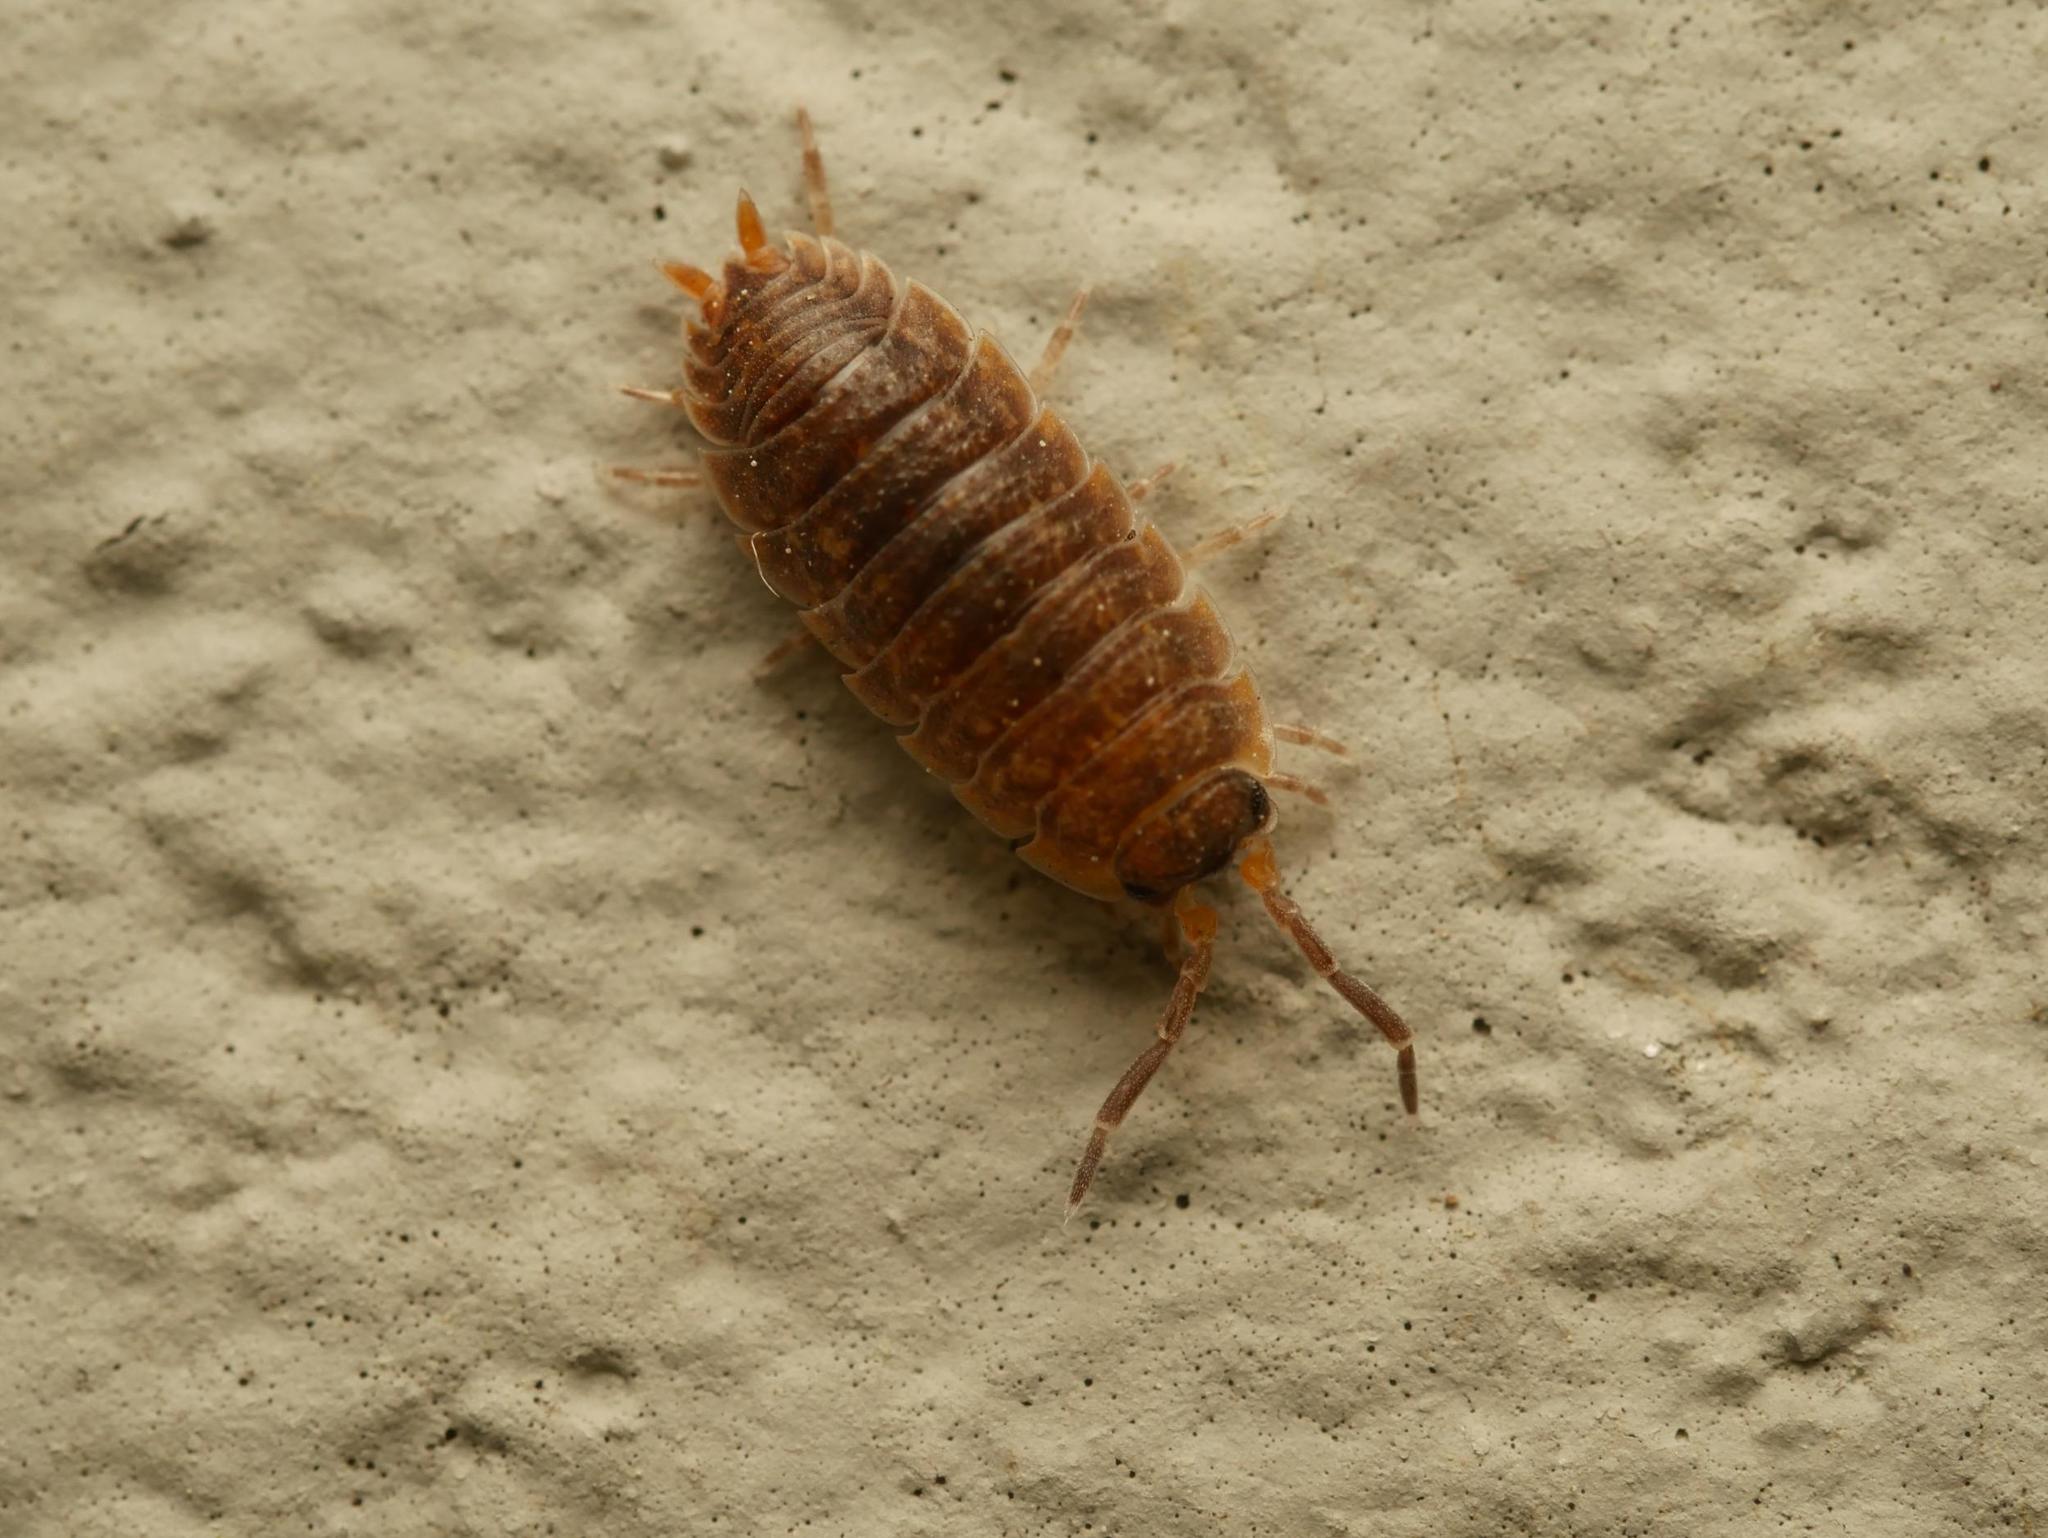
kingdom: Animalia
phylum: Arthropoda
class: Malacostraca
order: Isopoda
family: Porcellionidae
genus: Porcellio
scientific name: Porcellio scaber
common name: Common rough woodlouse
